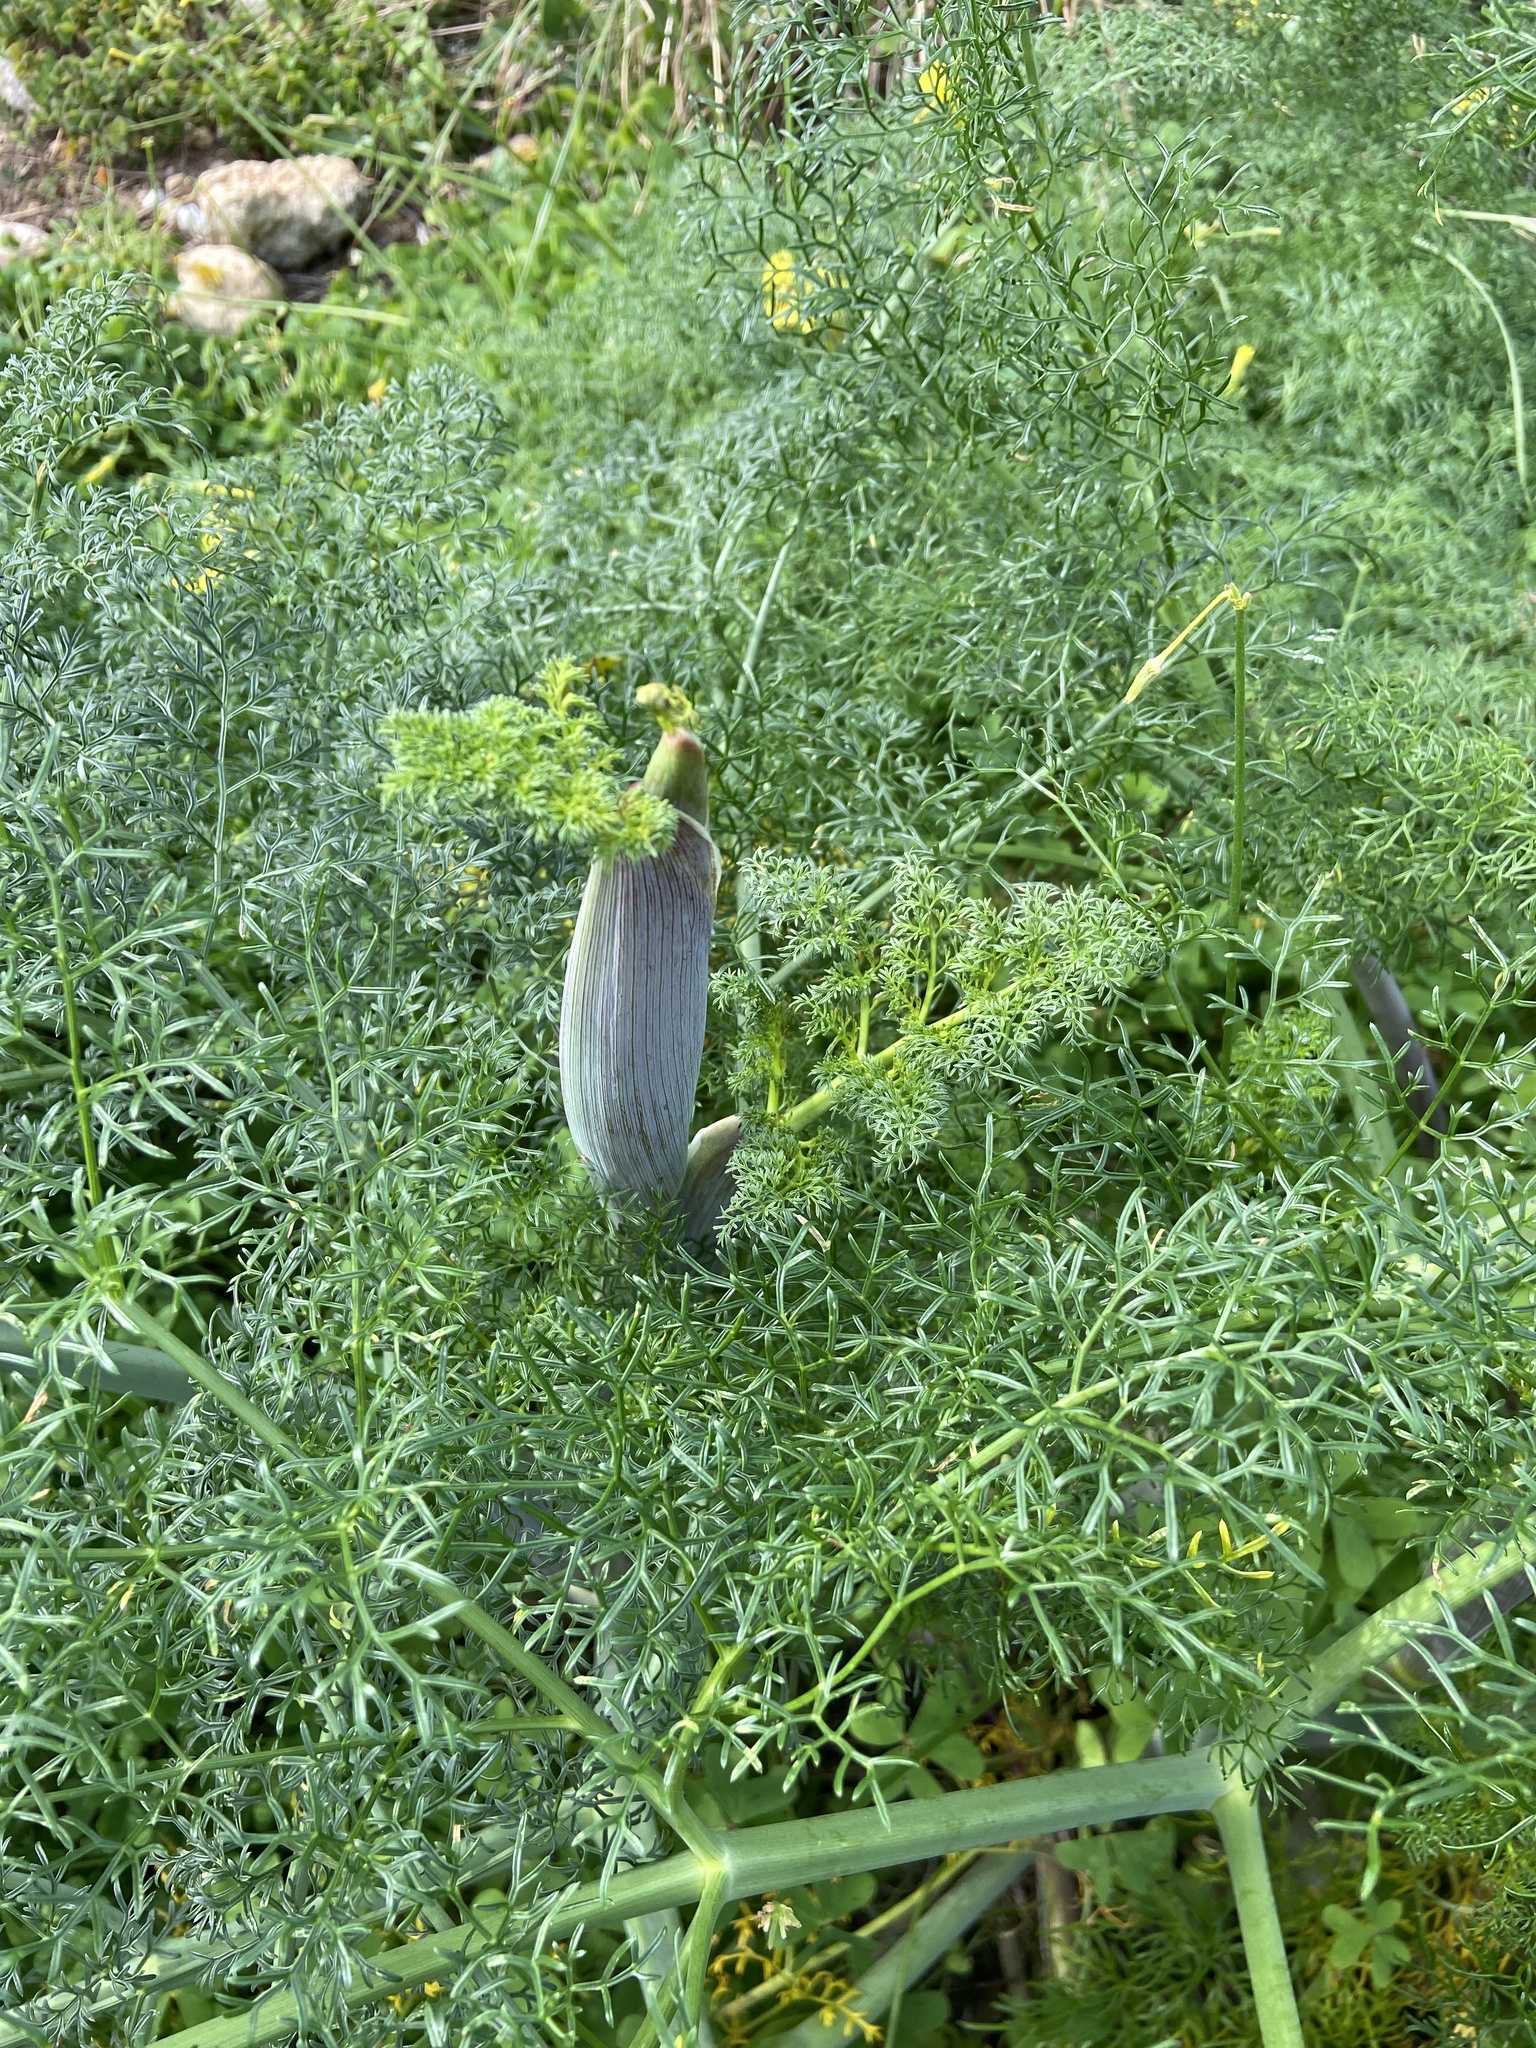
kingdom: Plantae
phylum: Tracheophyta
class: Magnoliopsida
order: Apiales
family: Apiaceae
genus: Ferula
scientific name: Ferula melitensis
